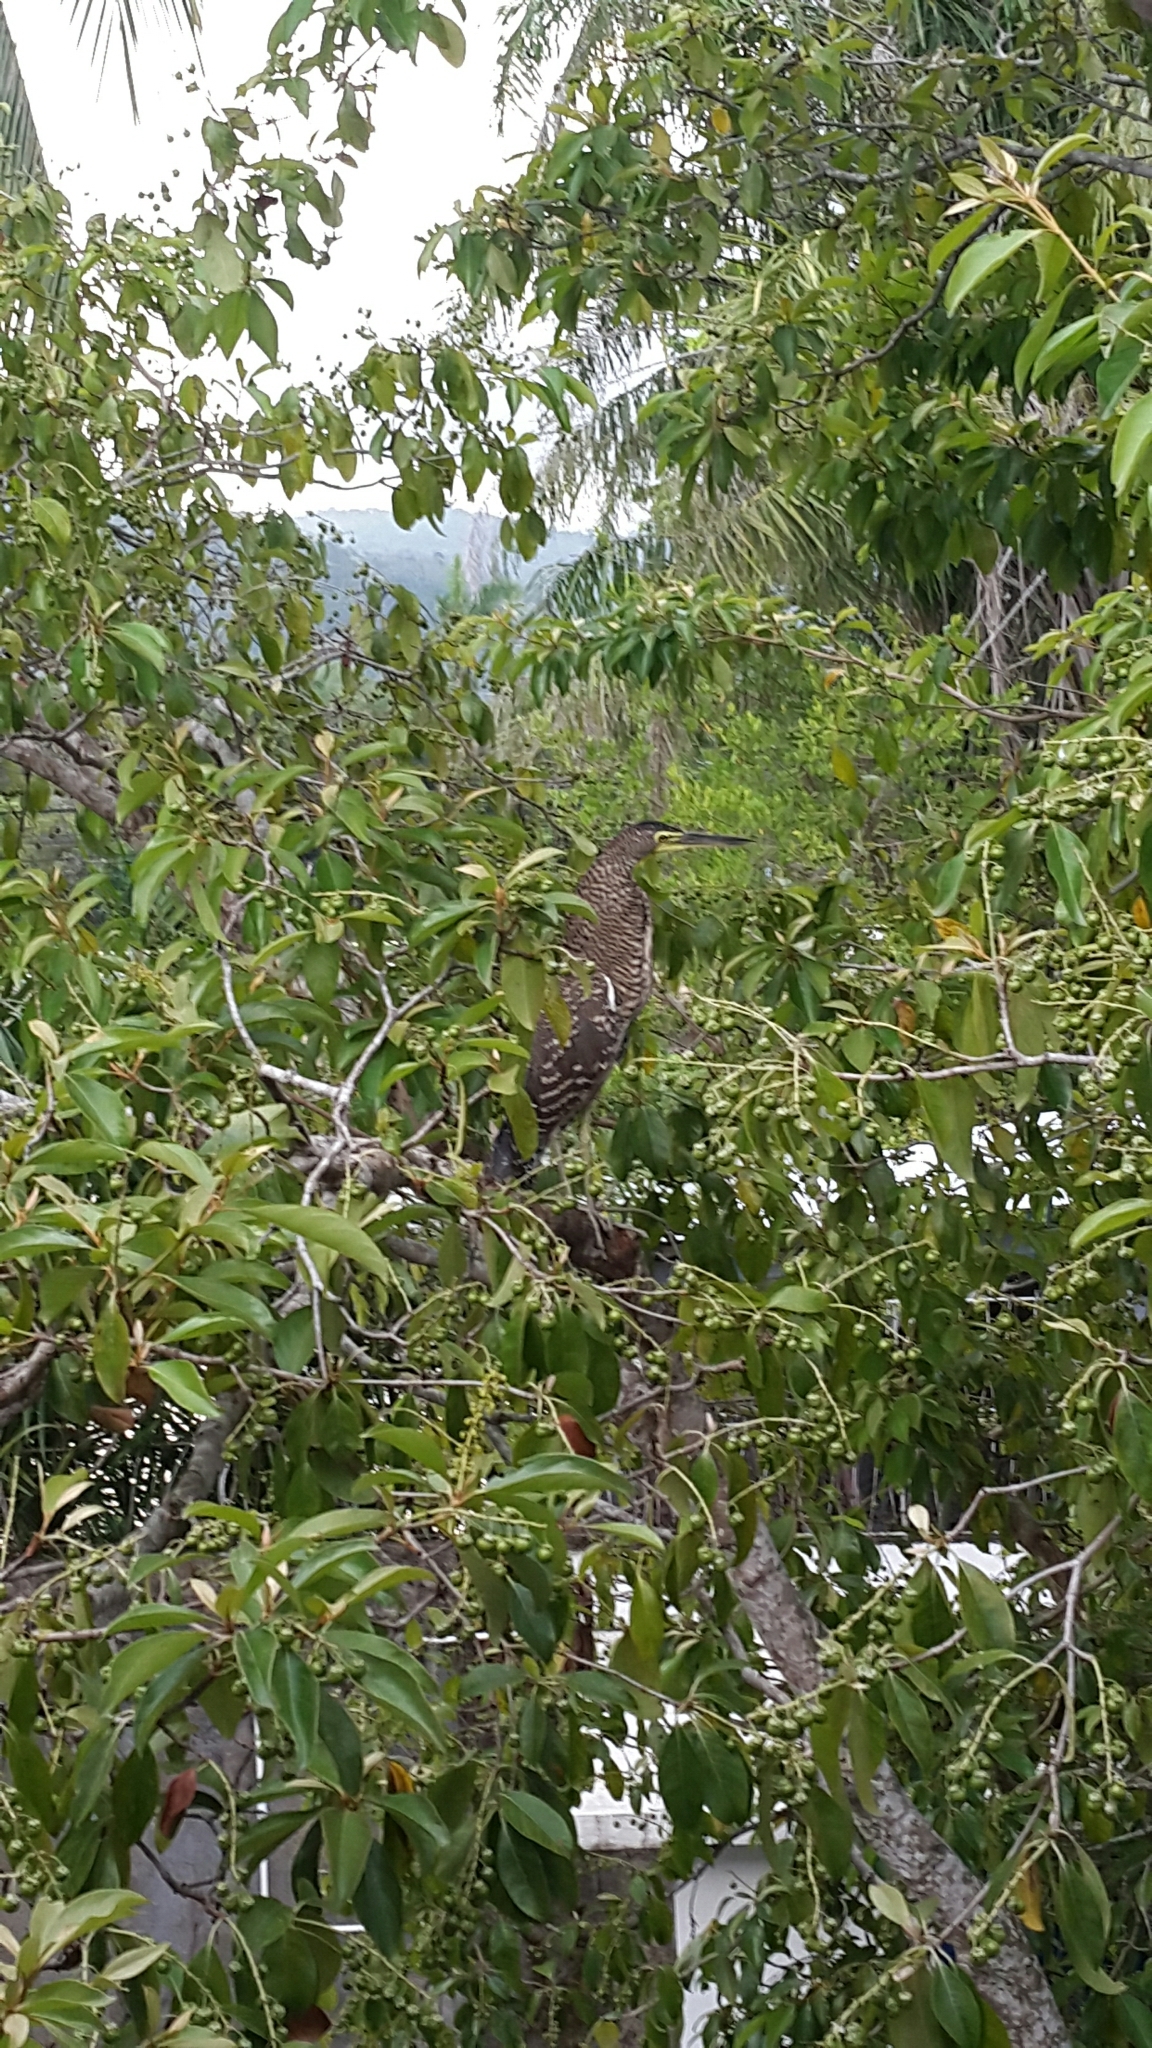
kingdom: Animalia
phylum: Chordata
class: Aves
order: Pelecaniformes
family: Ardeidae
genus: Tigrisoma
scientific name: Tigrisoma mexicanum
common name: Bare-throated tiger-heron
